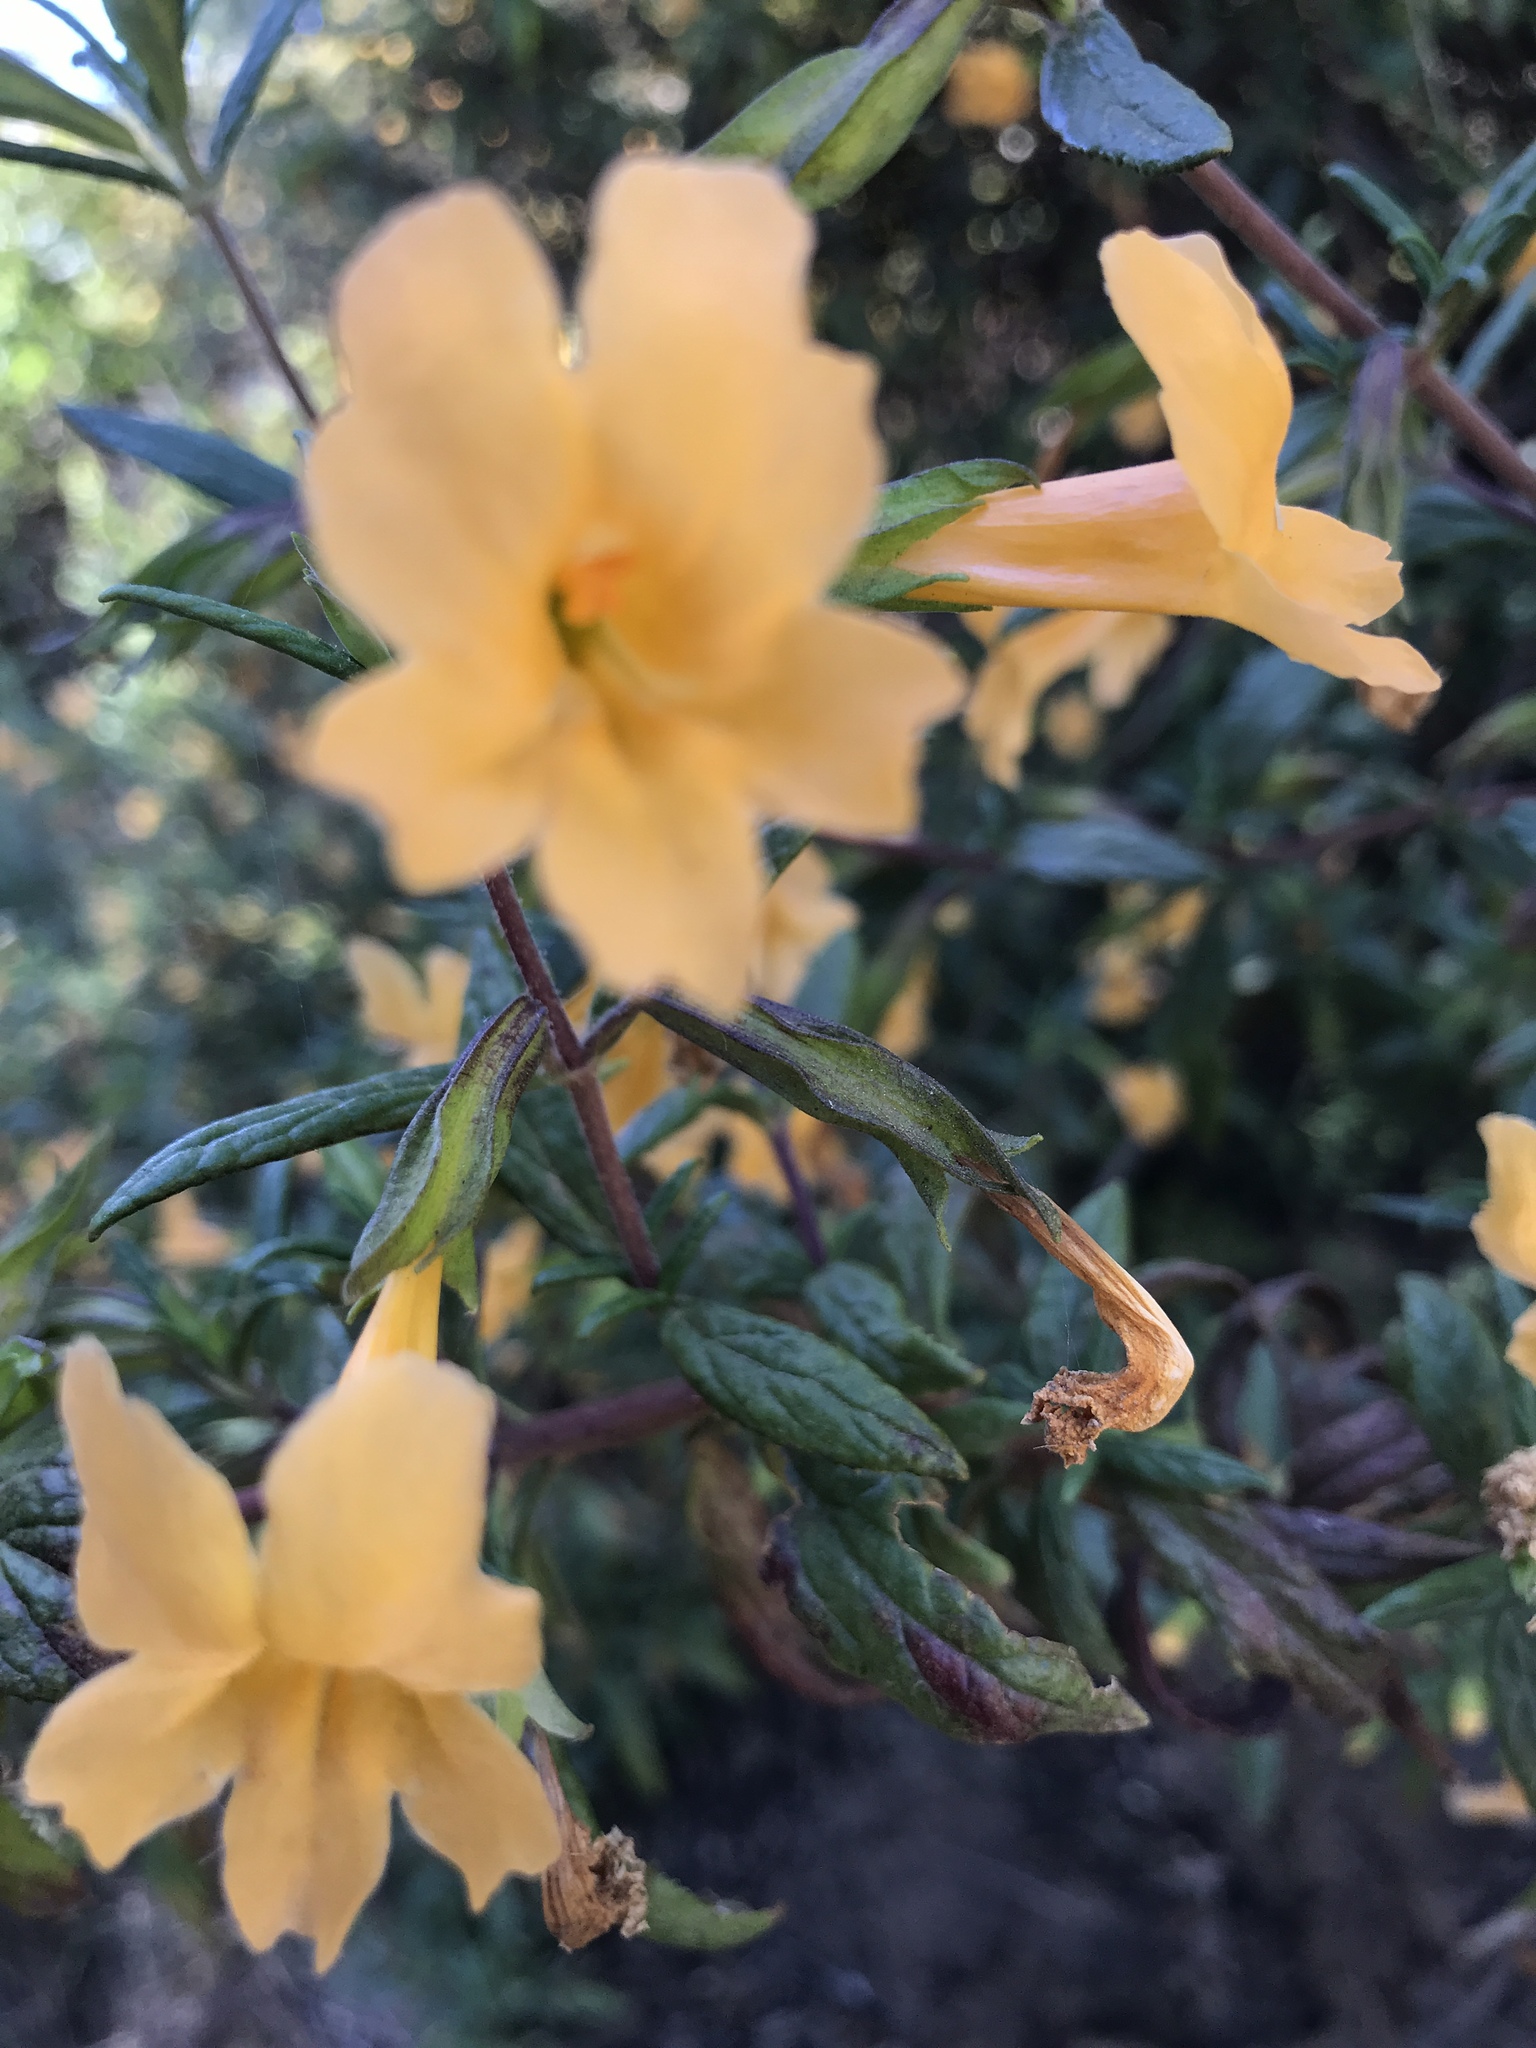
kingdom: Plantae
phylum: Tracheophyta
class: Magnoliopsida
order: Lamiales
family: Phrymaceae
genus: Diplacus
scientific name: Diplacus aurantiacus
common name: Bush monkey-flower
